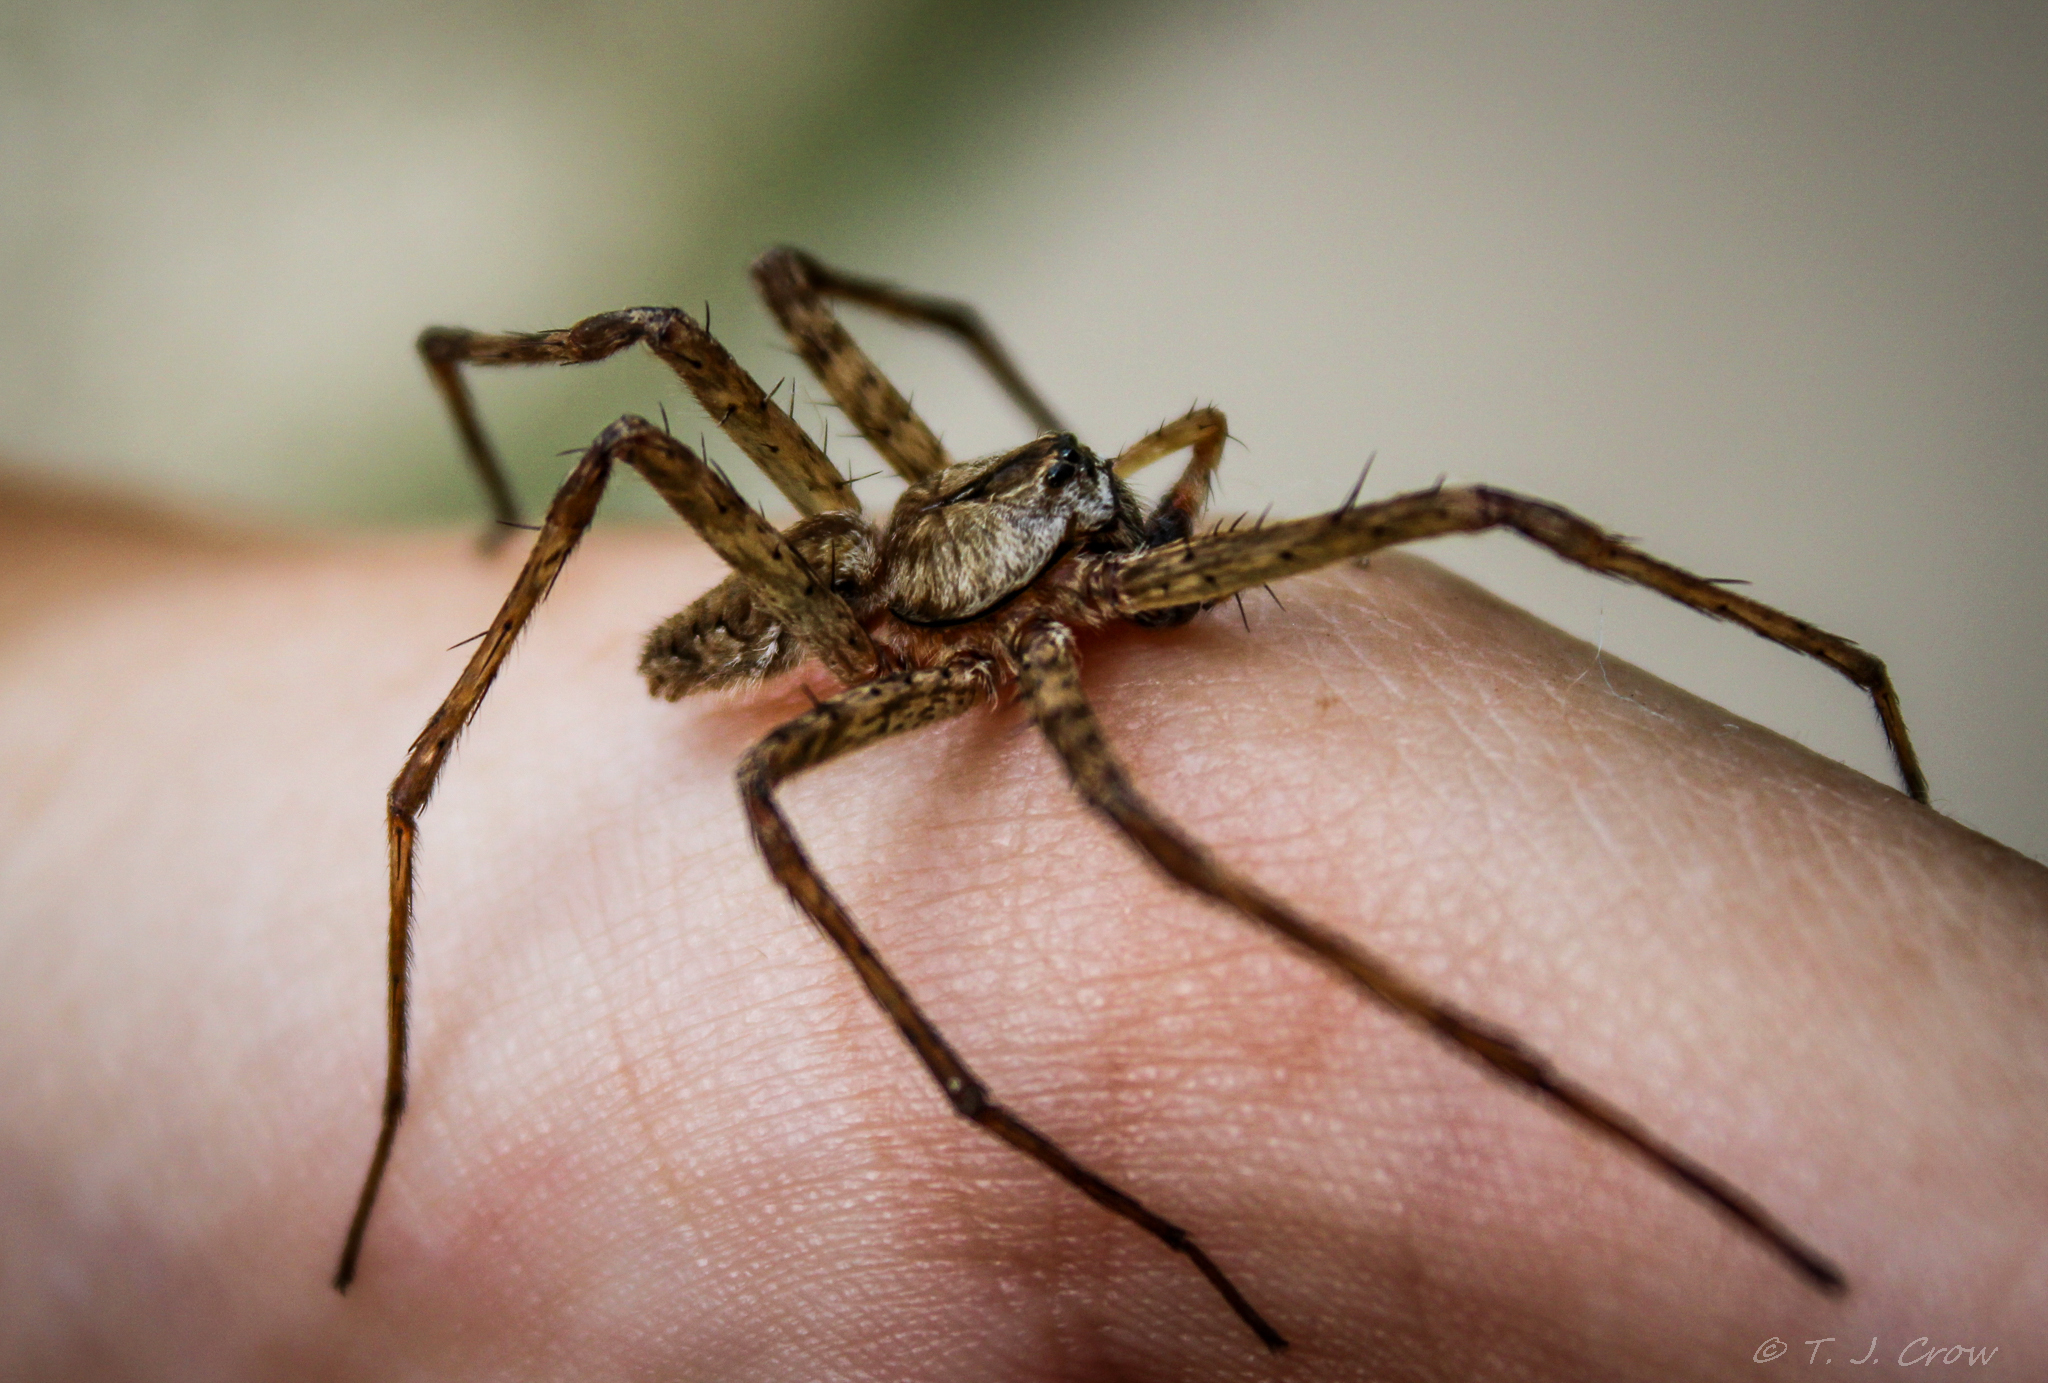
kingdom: Animalia
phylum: Arthropoda
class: Arachnida
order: Araneae
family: Pisauridae
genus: Dolomedes
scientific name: Dolomedes albineus
